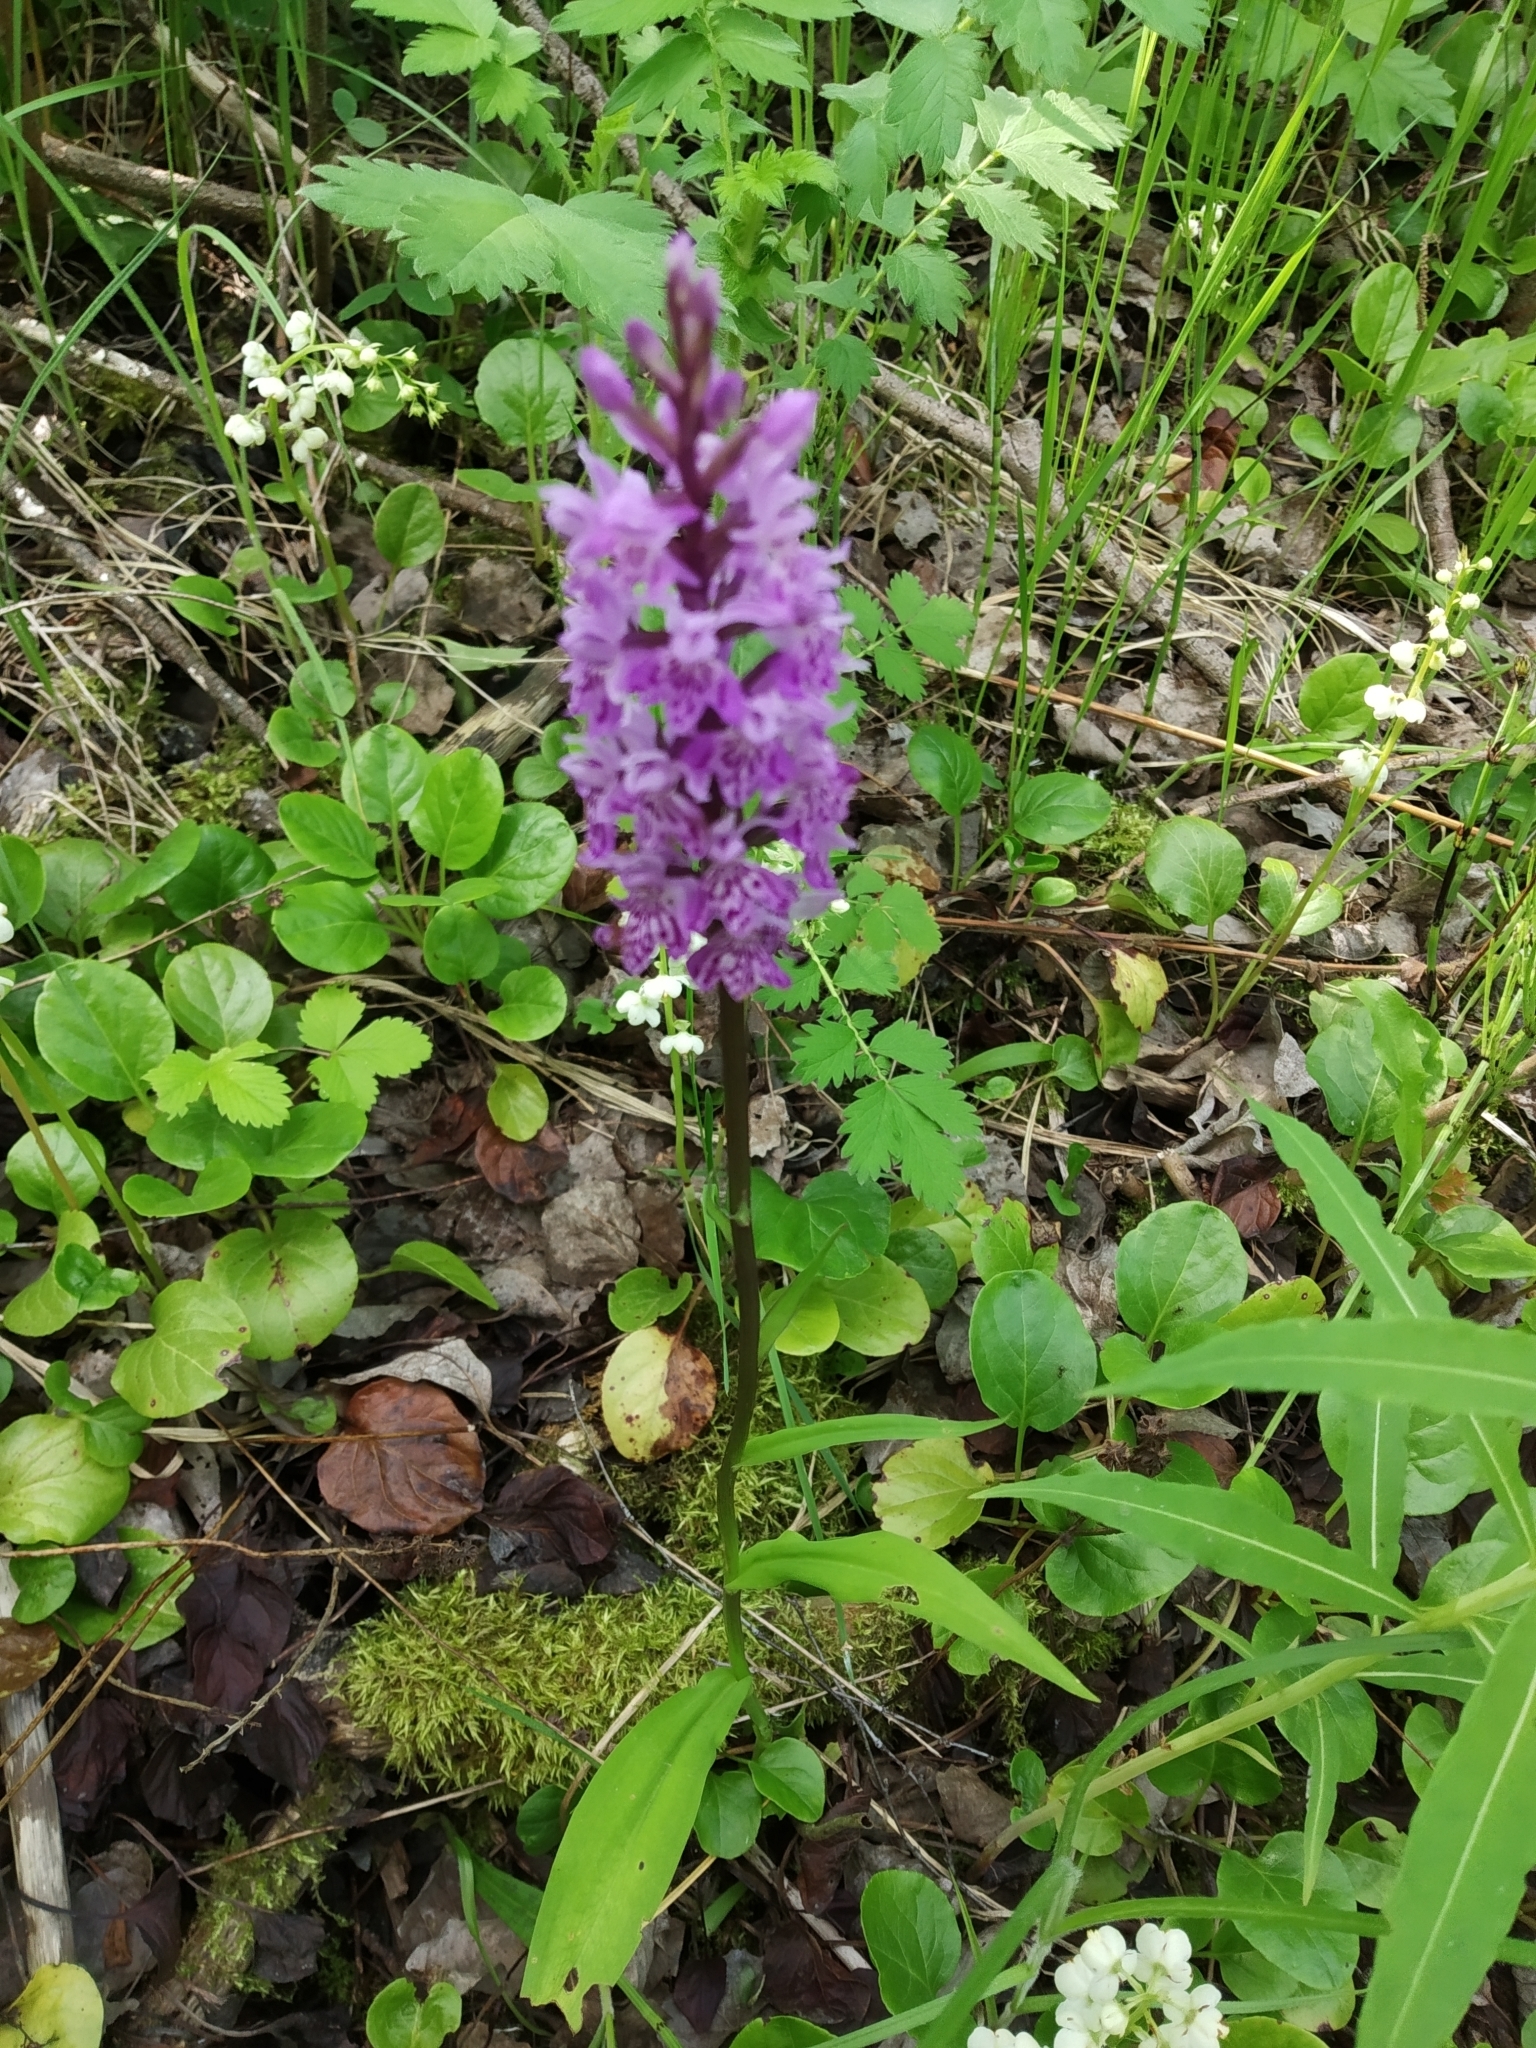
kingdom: Plantae
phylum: Tracheophyta
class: Liliopsida
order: Asparagales
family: Orchidaceae
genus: Dactylorhiza
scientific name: Dactylorhiza maculata
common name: Heath spotted-orchid
